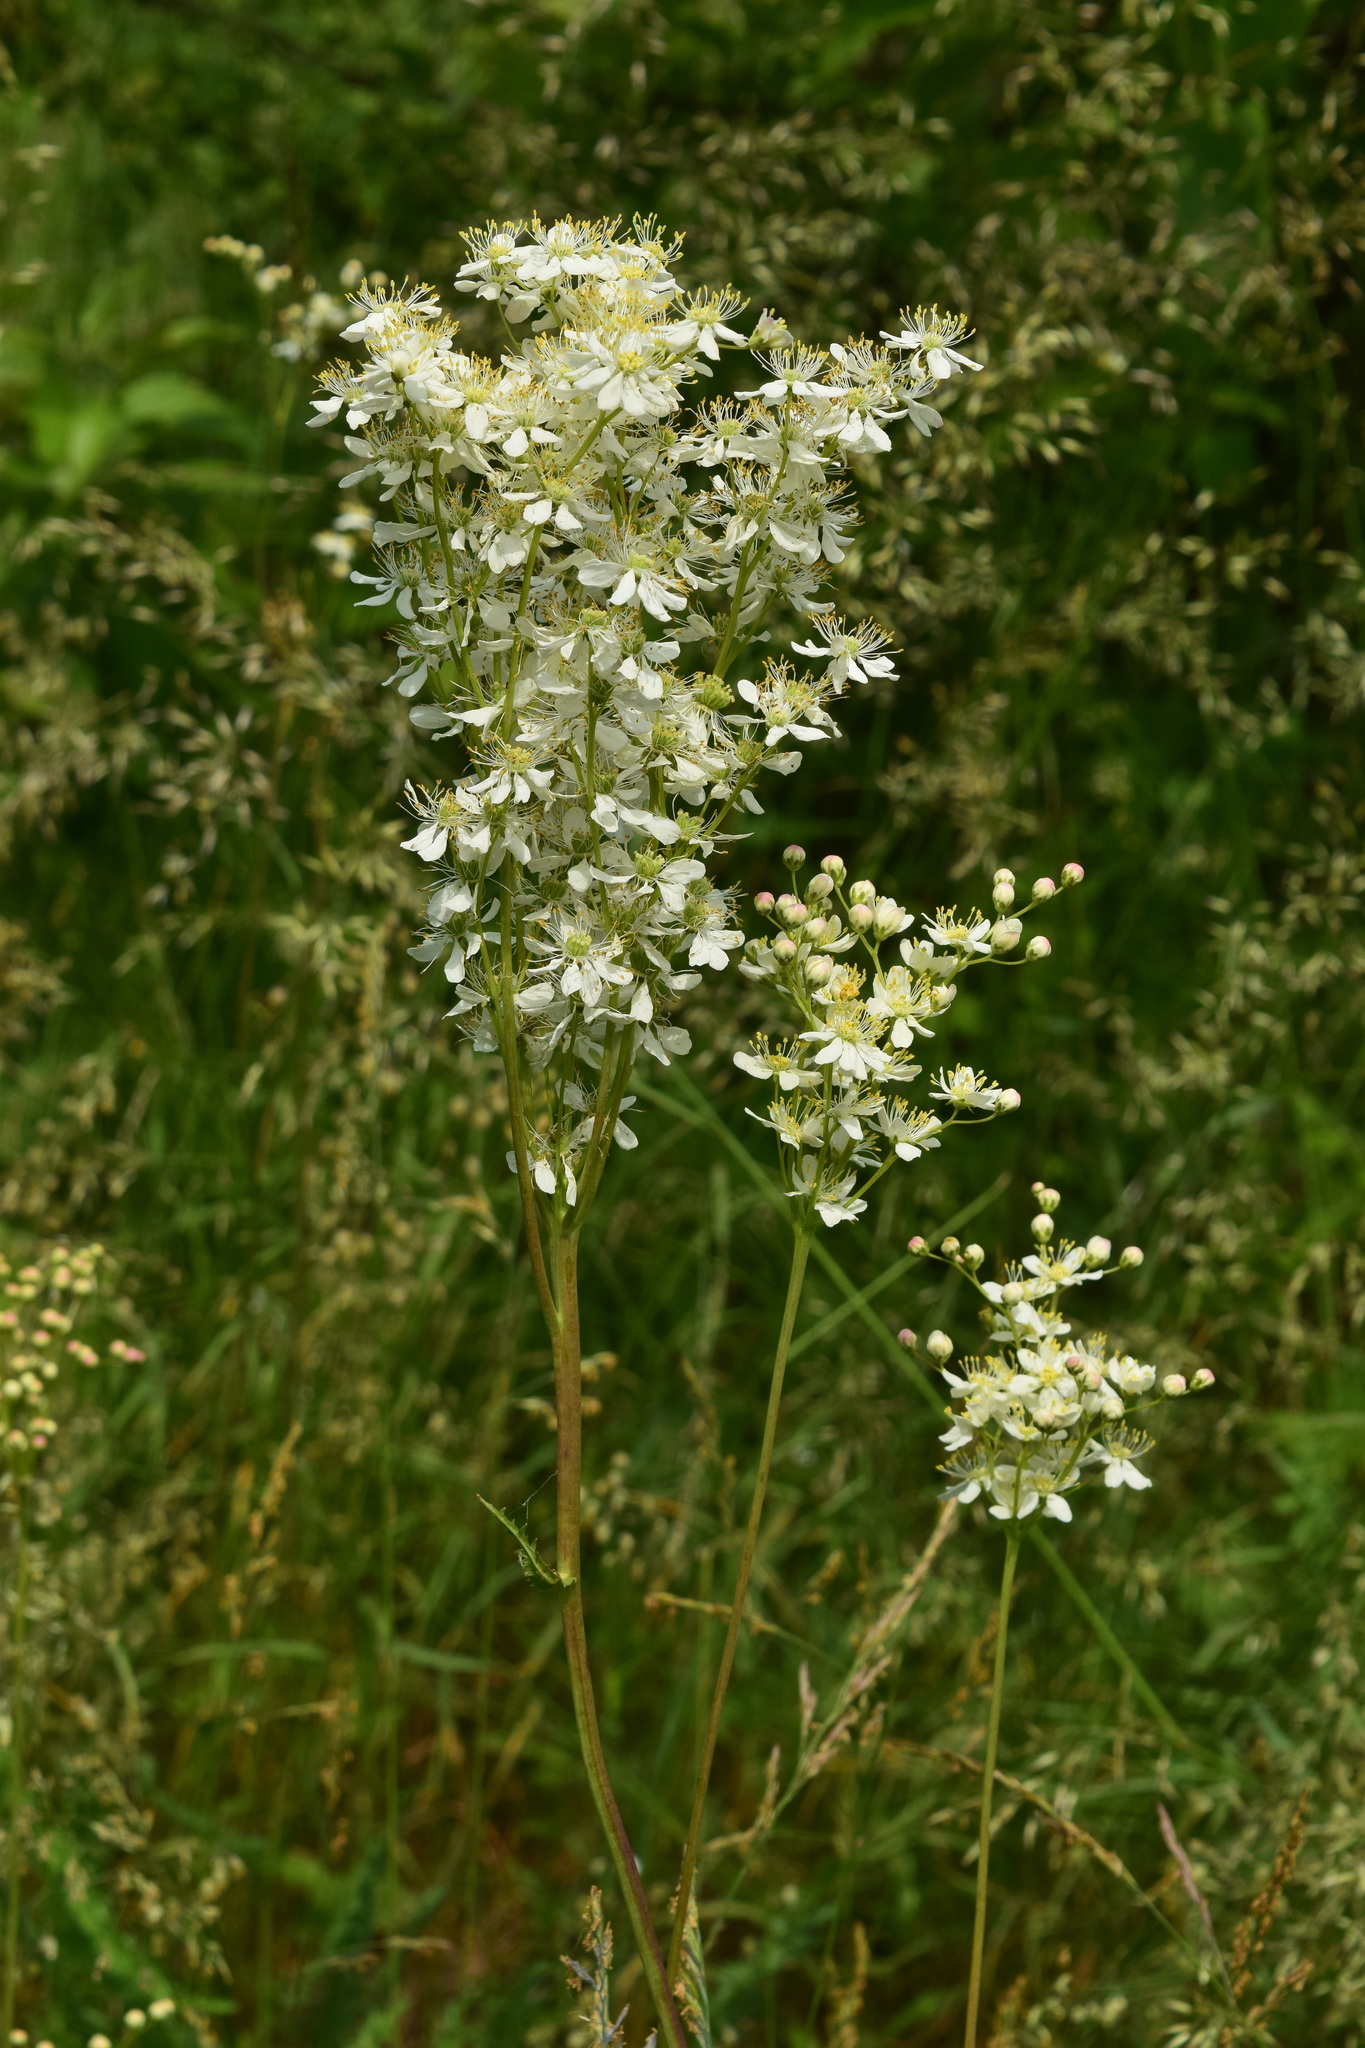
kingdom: Plantae
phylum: Tracheophyta
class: Magnoliopsida
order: Rosales
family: Rosaceae
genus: Filipendula
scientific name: Filipendula vulgaris
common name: Dropwort
